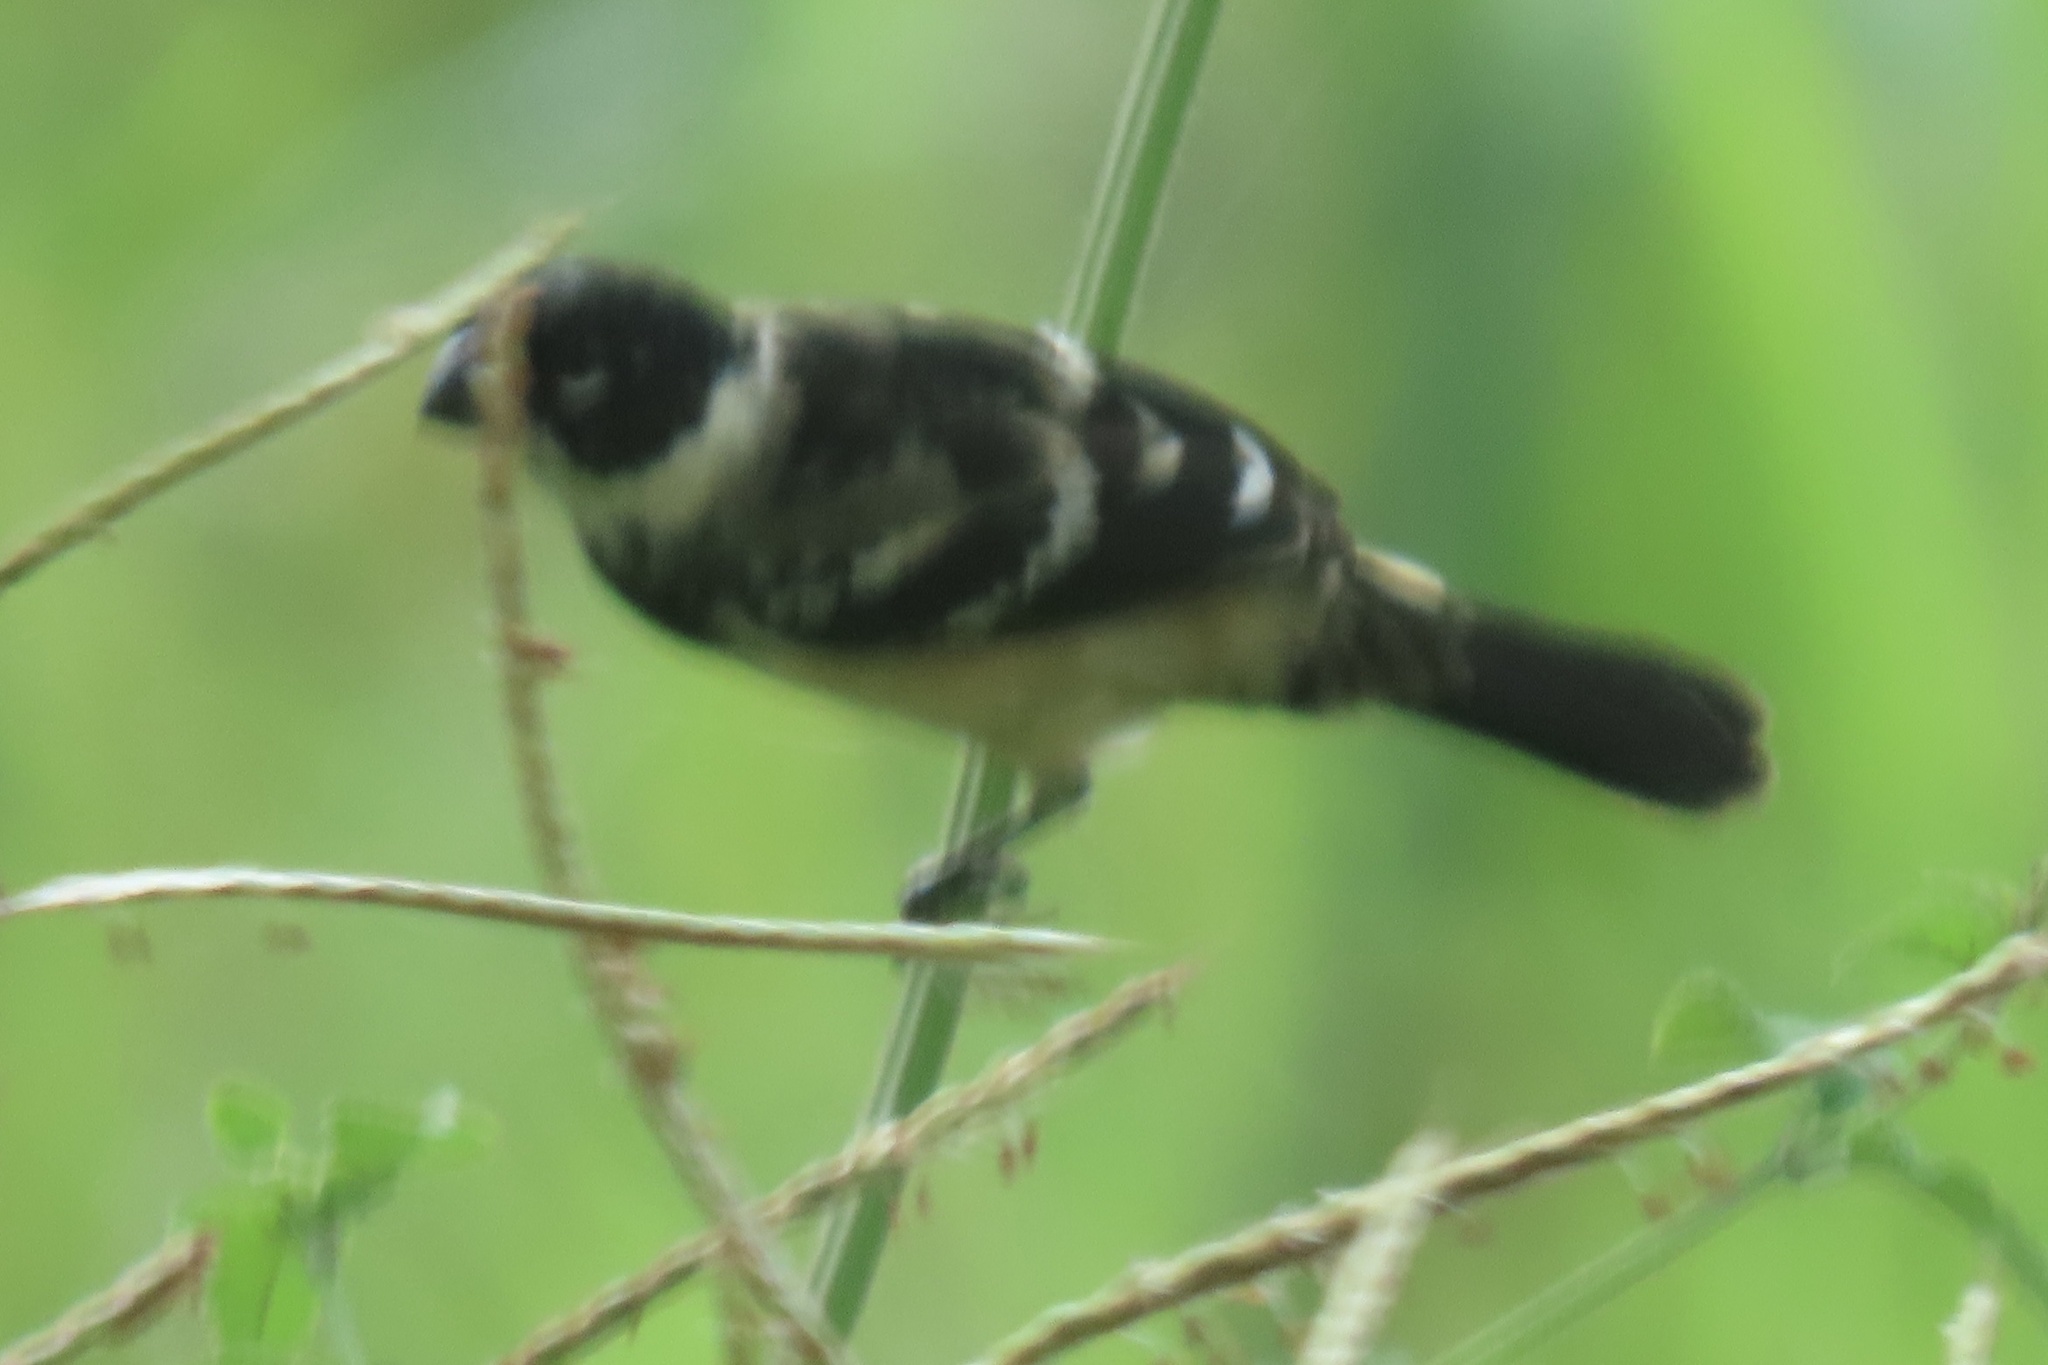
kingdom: Animalia
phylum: Chordata
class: Aves
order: Passeriformes
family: Thraupidae
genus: Sporophila
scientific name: Sporophila morelleti
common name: Morelet's seedeater
